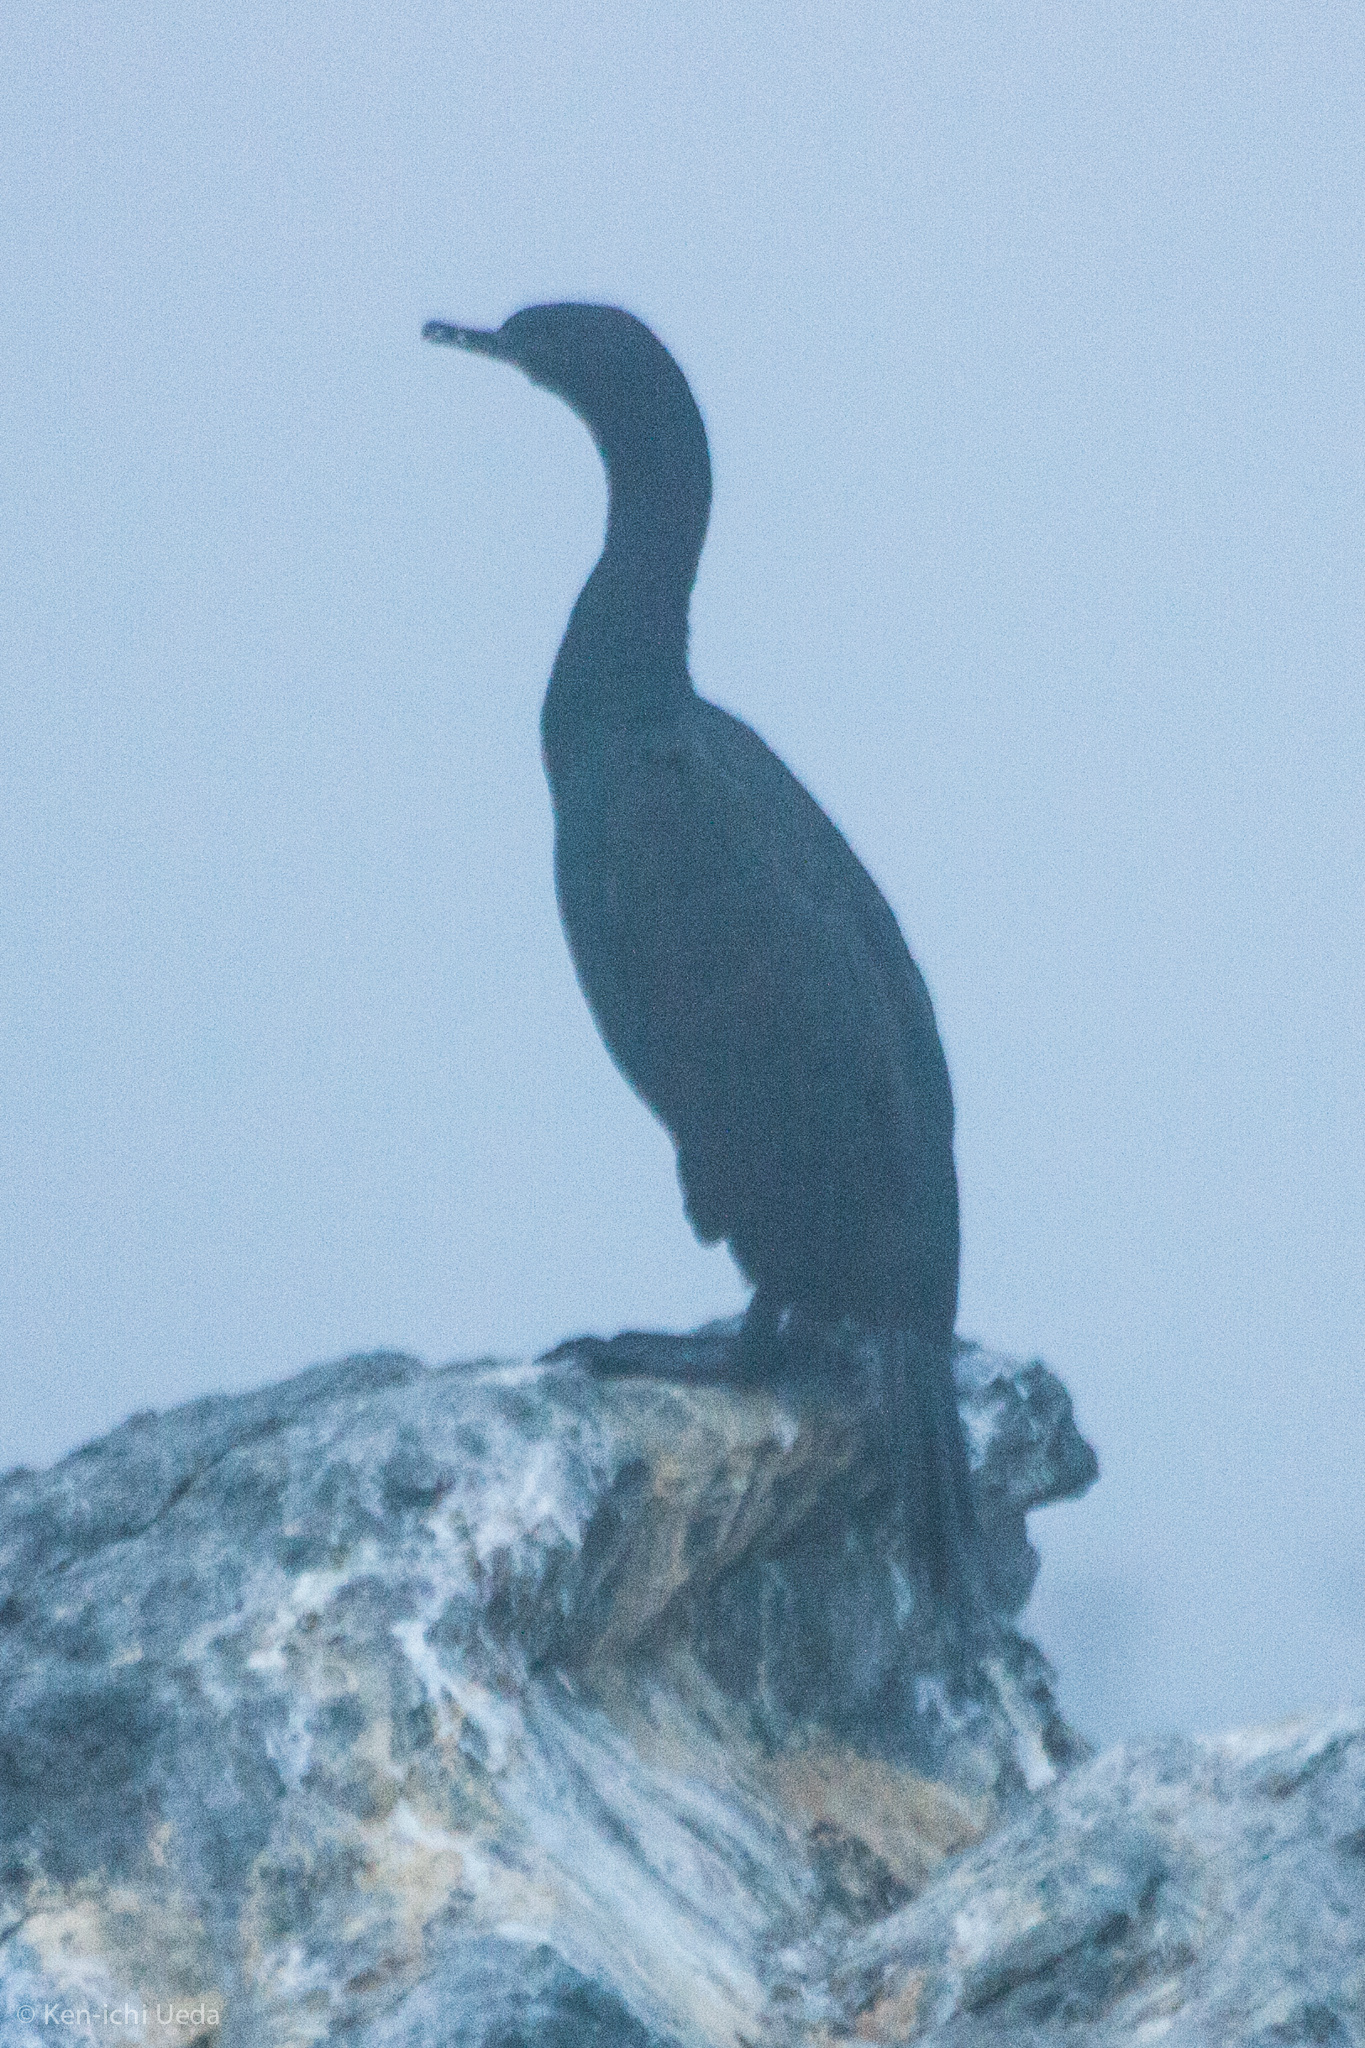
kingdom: Animalia
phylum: Chordata
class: Aves
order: Suliformes
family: Phalacrocoracidae
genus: Phalacrocorax
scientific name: Phalacrocorax pelagicus
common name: Pelagic cormorant
